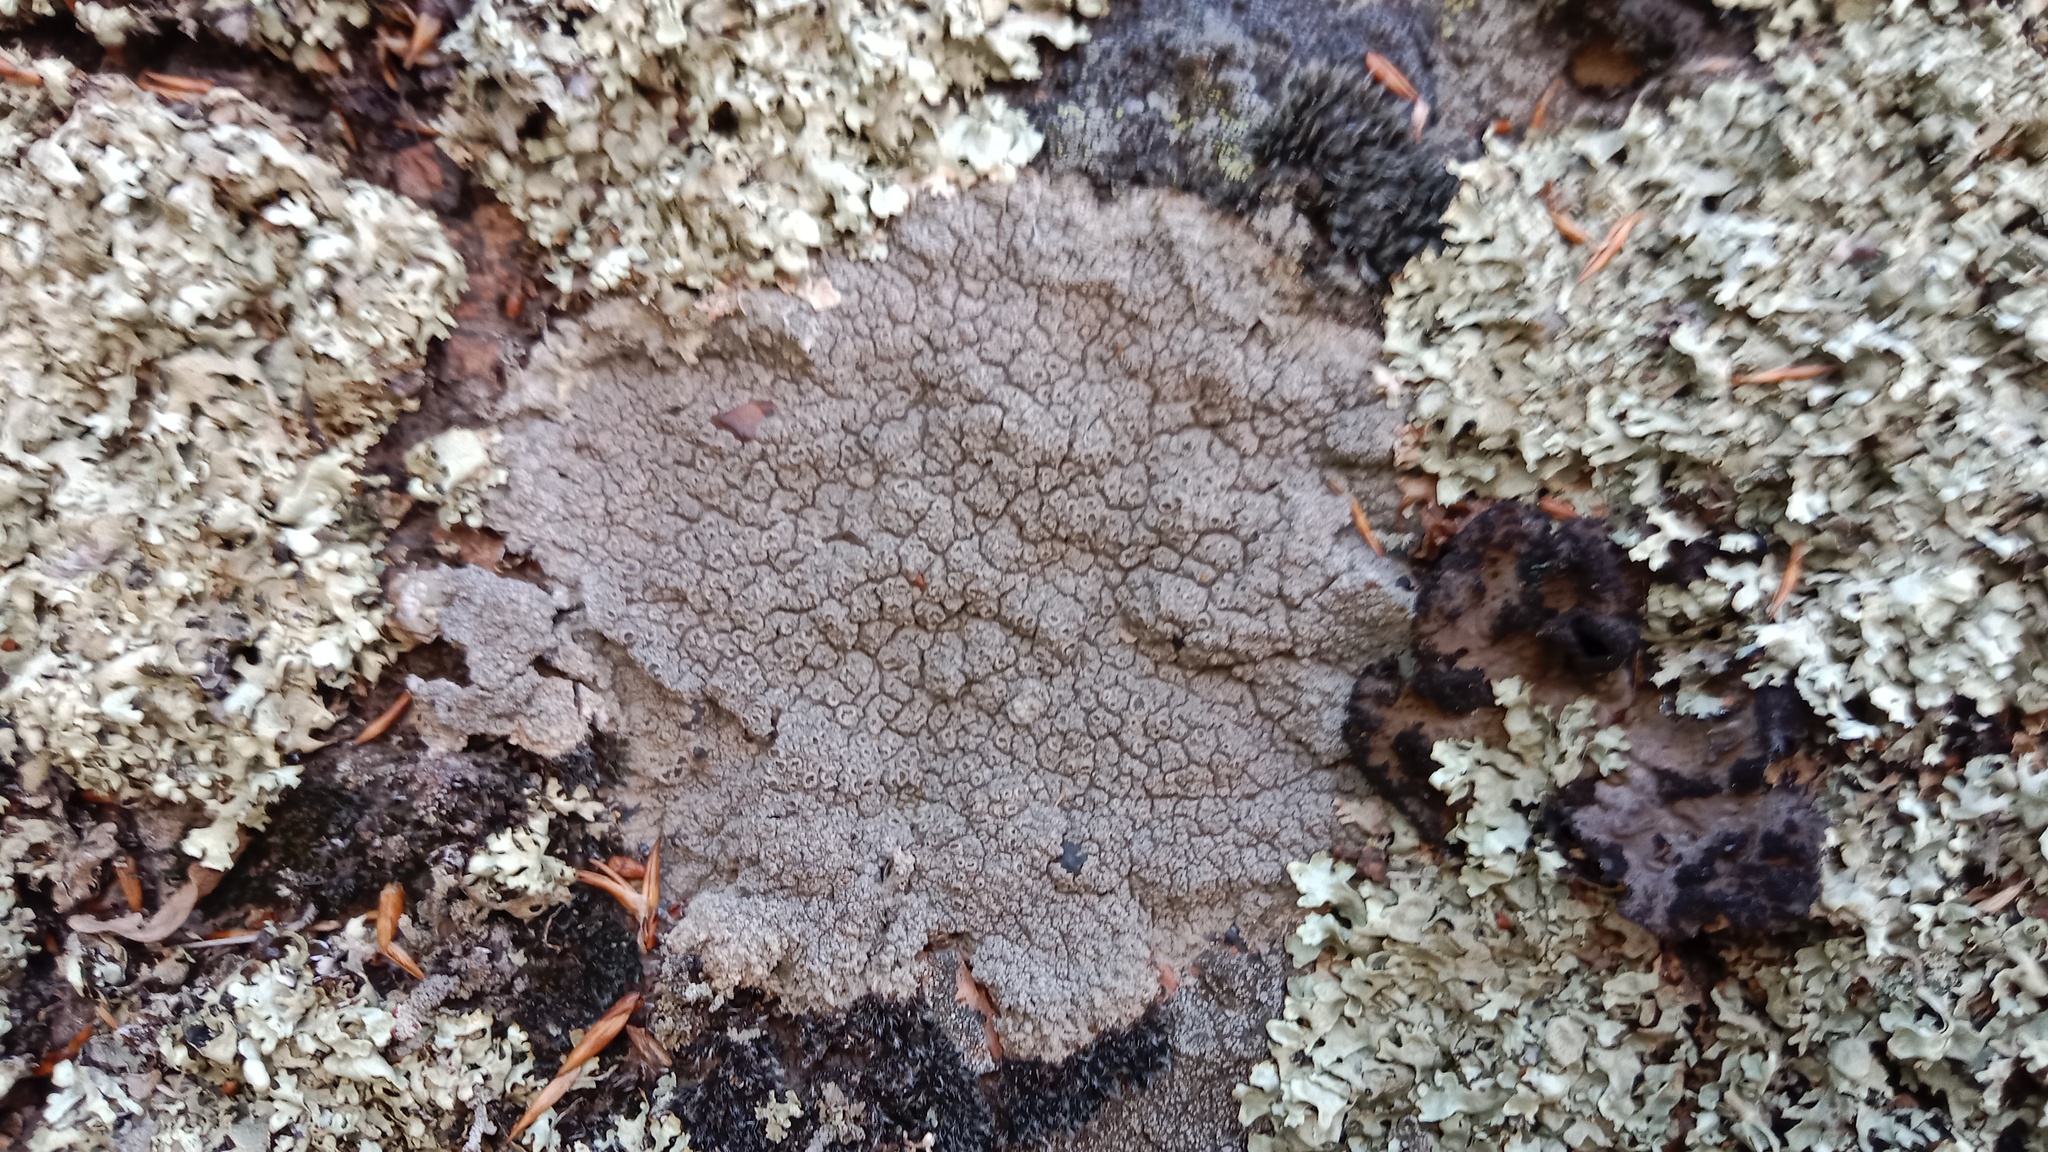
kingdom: Fungi
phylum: Ascomycota
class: Lecanoromycetes
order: Ostropales
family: Graphidaceae
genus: Diploschistes
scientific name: Diploschistes scruposus
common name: Crater lichen
